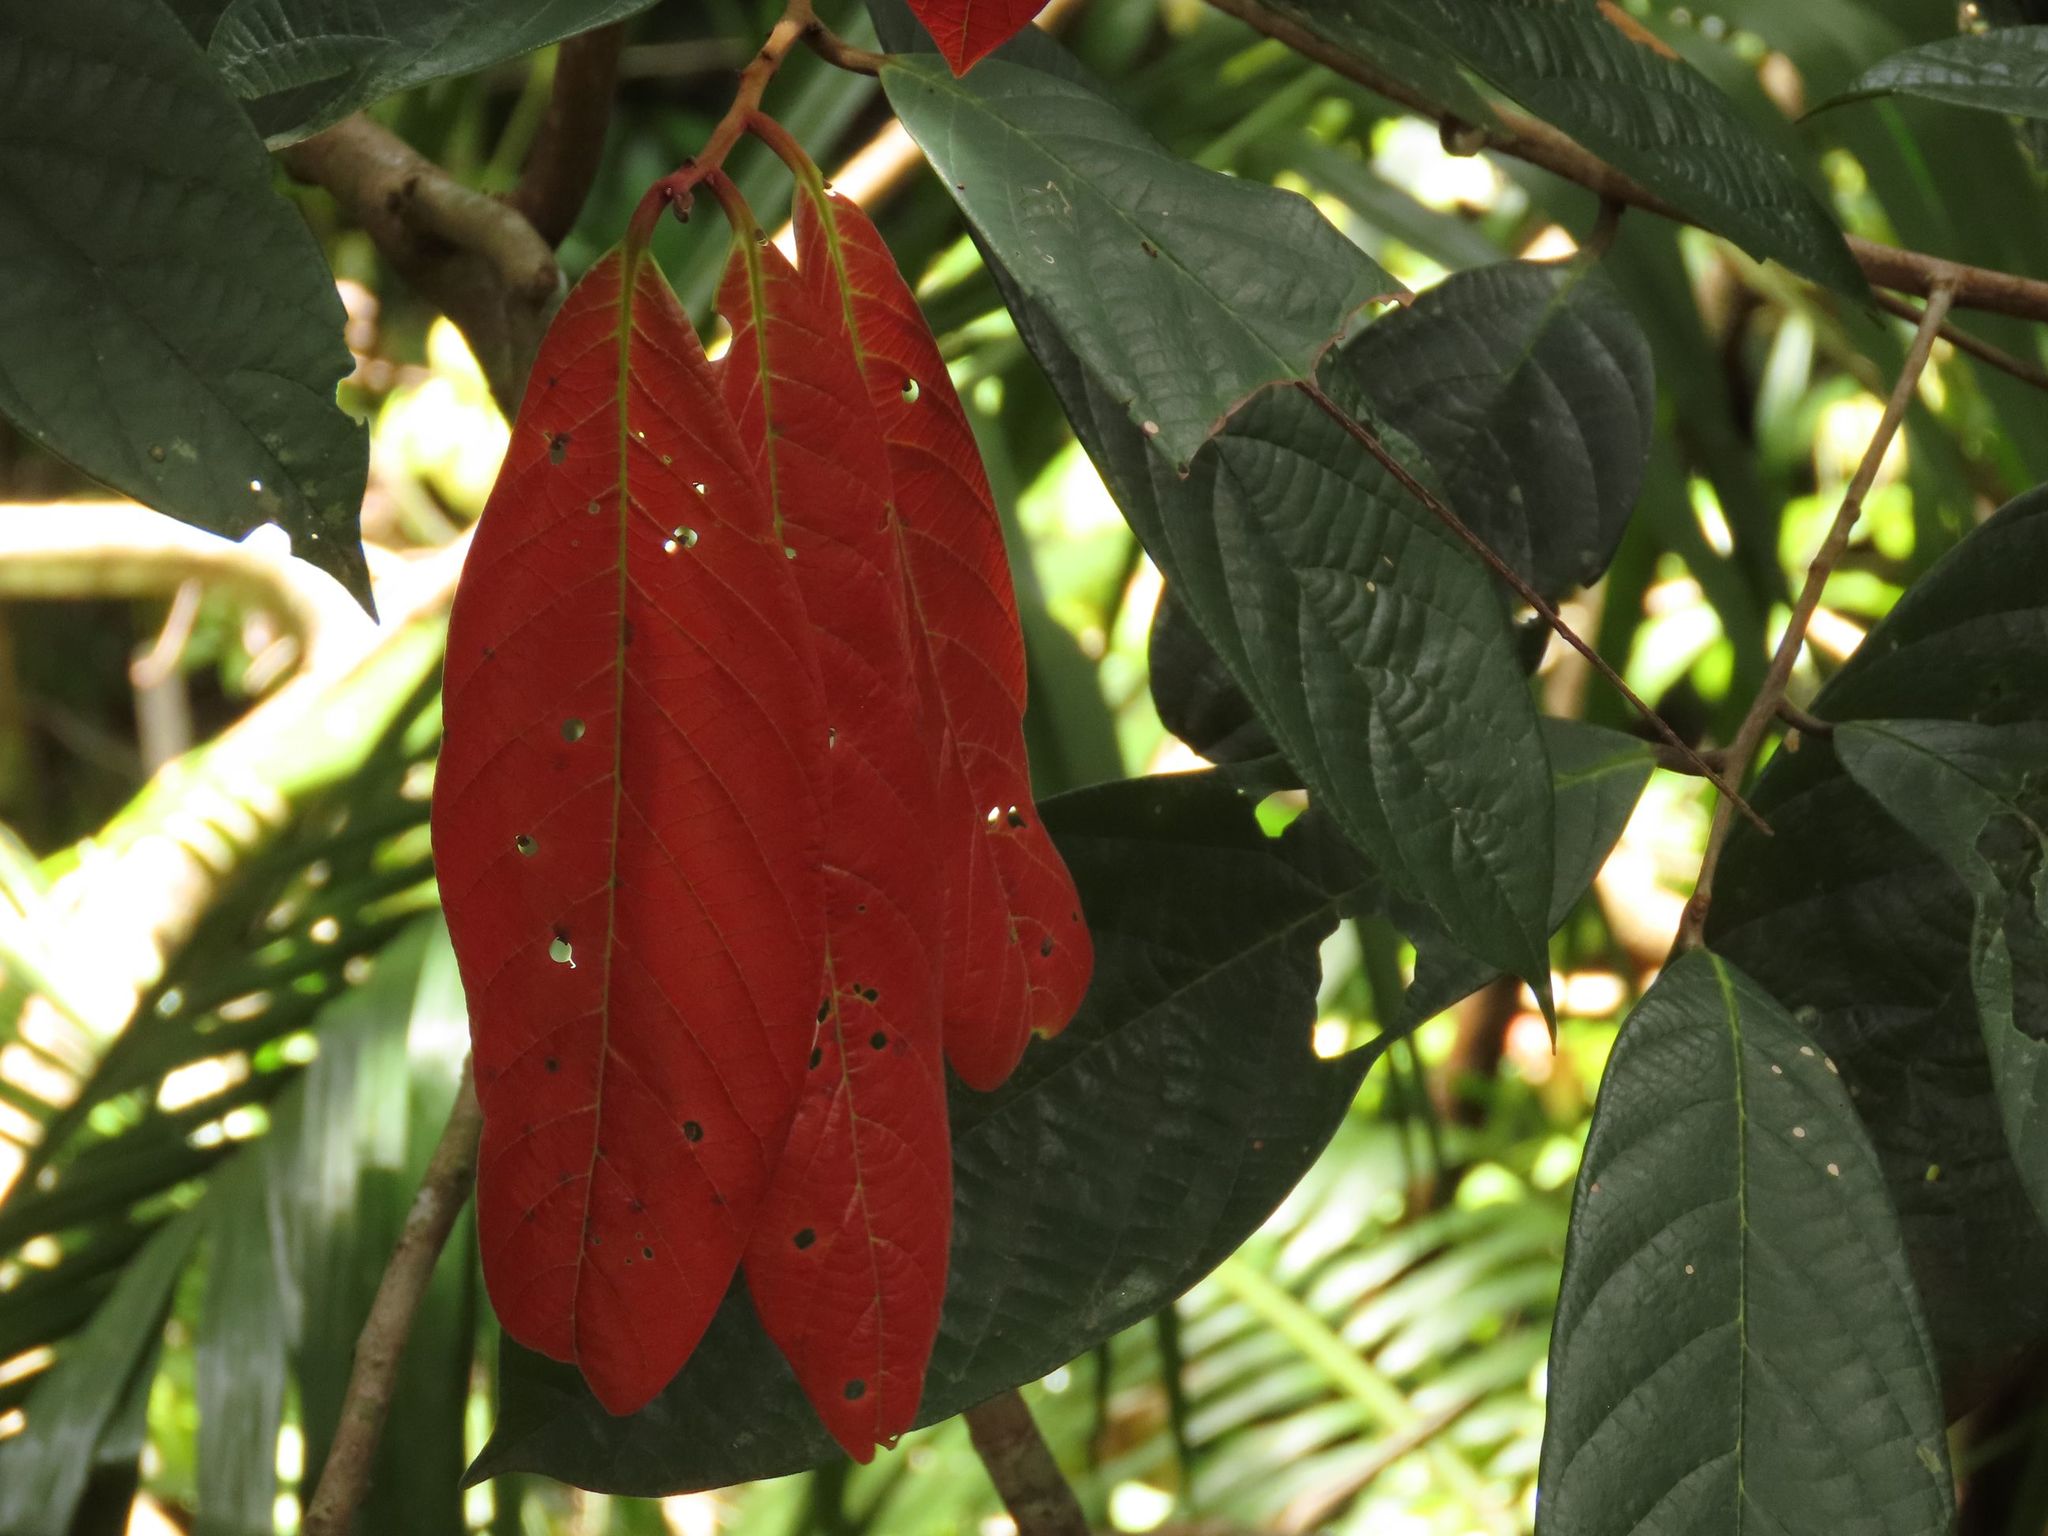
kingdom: Plantae
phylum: Tracheophyta
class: Magnoliopsida
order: Laurales
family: Lauraceae
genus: Cryptocarya
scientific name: Cryptocarya mackinnoniana
